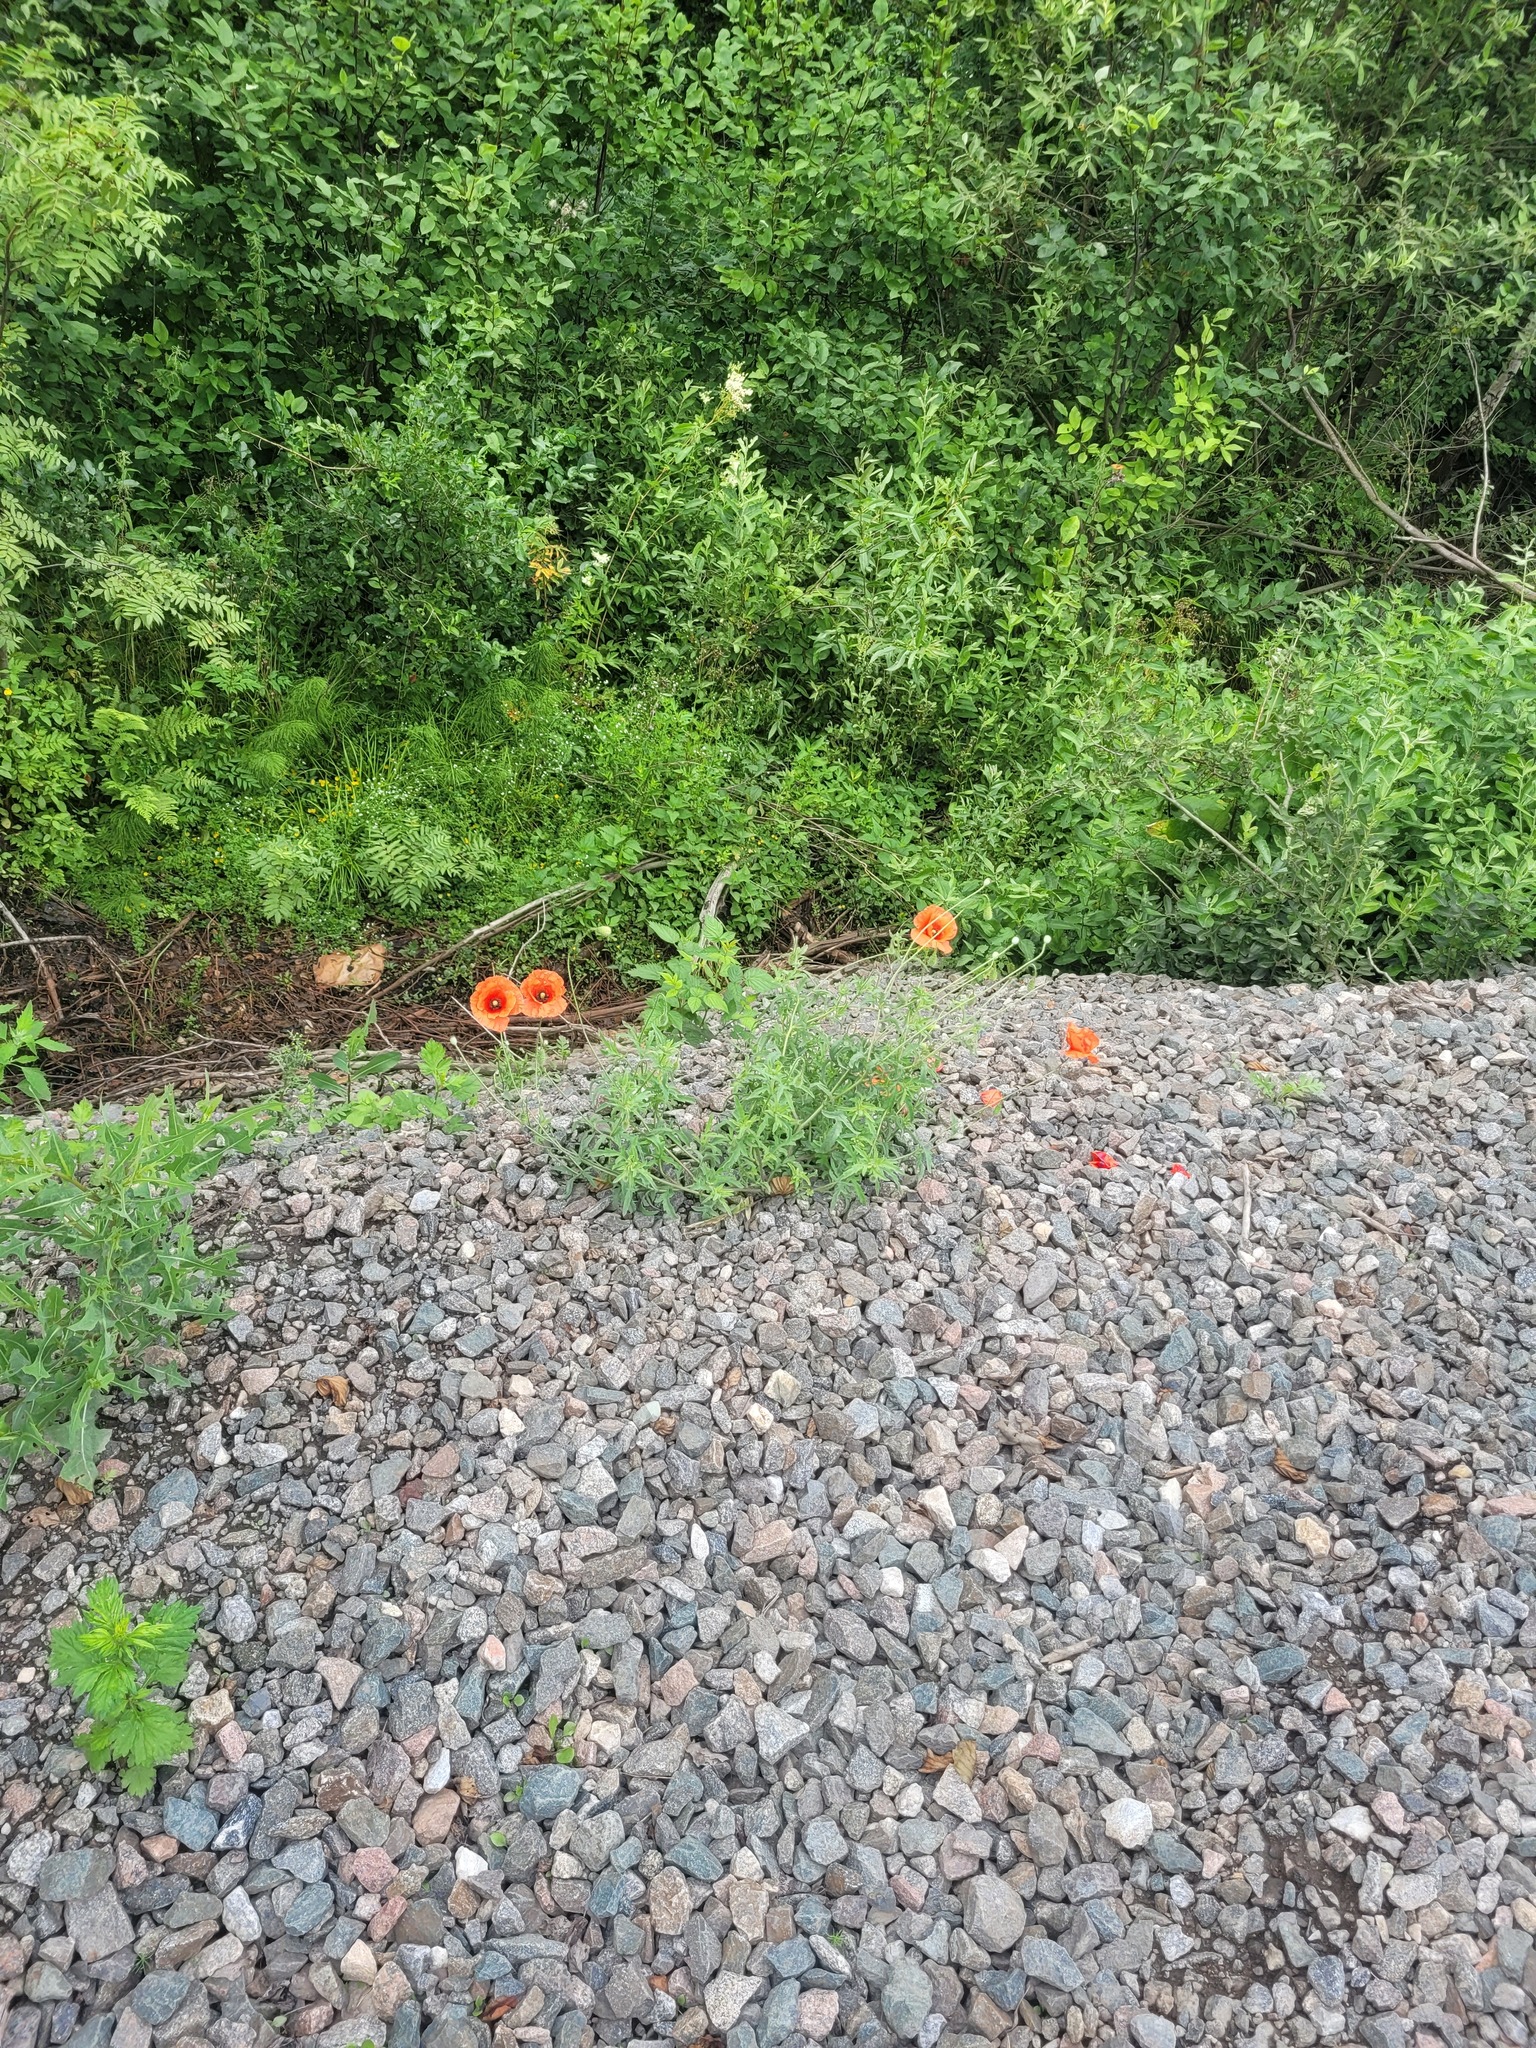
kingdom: Plantae
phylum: Tracheophyta
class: Magnoliopsida
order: Ranunculales
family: Papaveraceae
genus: Papaver
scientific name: Papaver rhoeas
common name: Corn poppy
